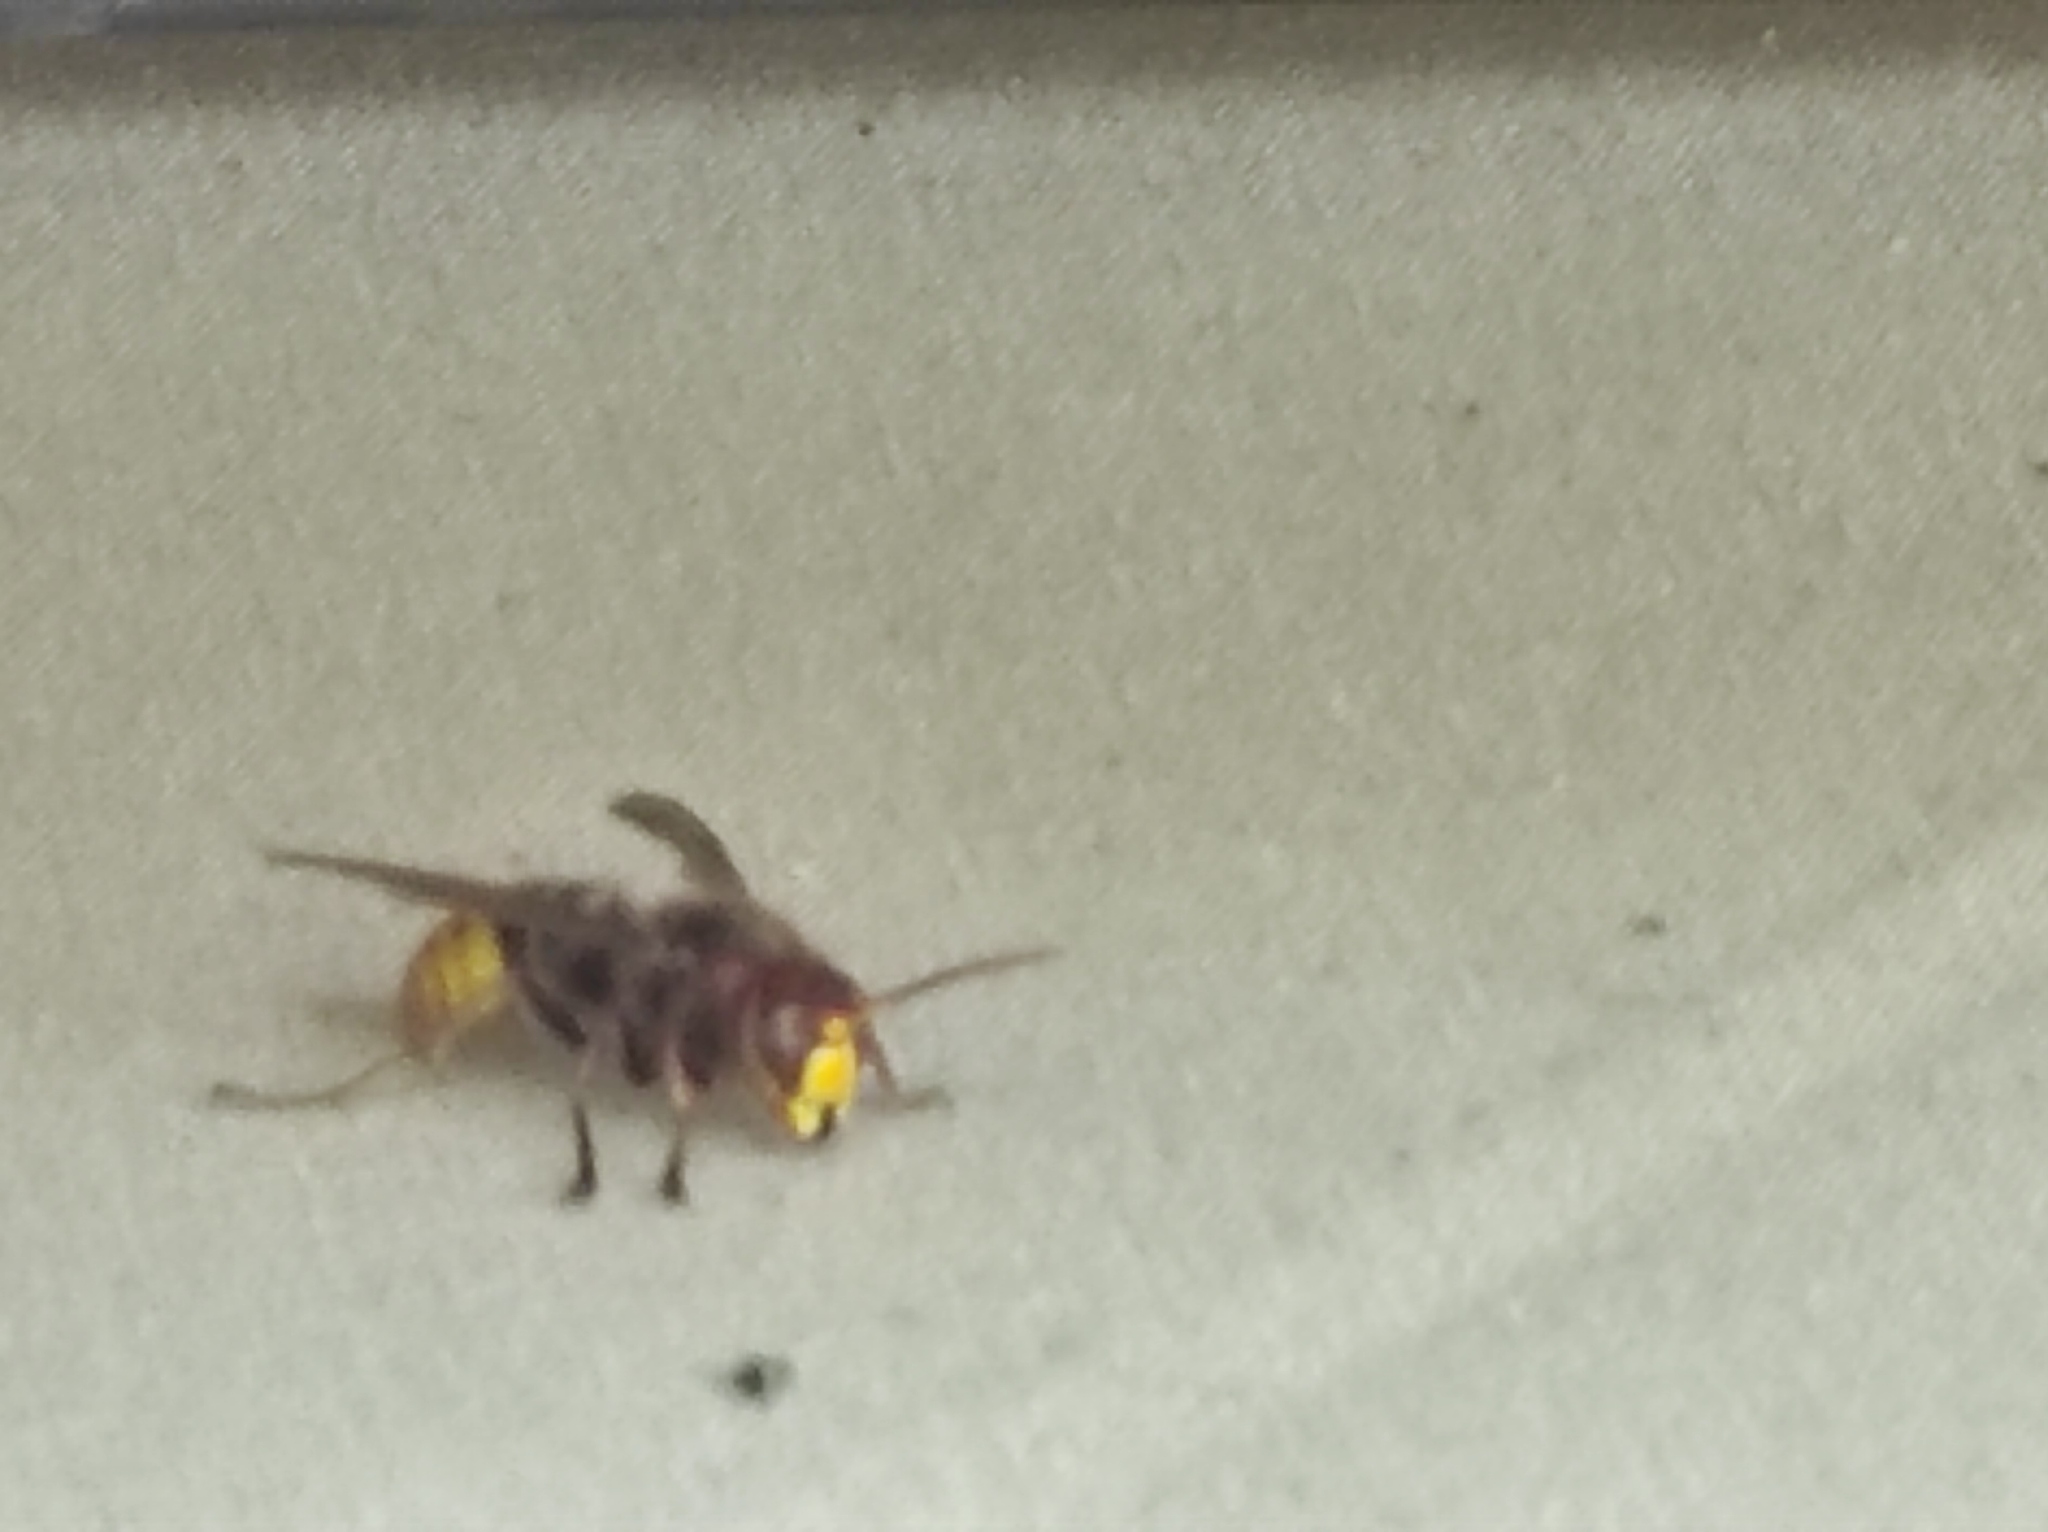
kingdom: Animalia
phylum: Arthropoda
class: Insecta
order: Hymenoptera
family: Vespidae
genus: Vespa
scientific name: Vespa crabro
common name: Hornet
